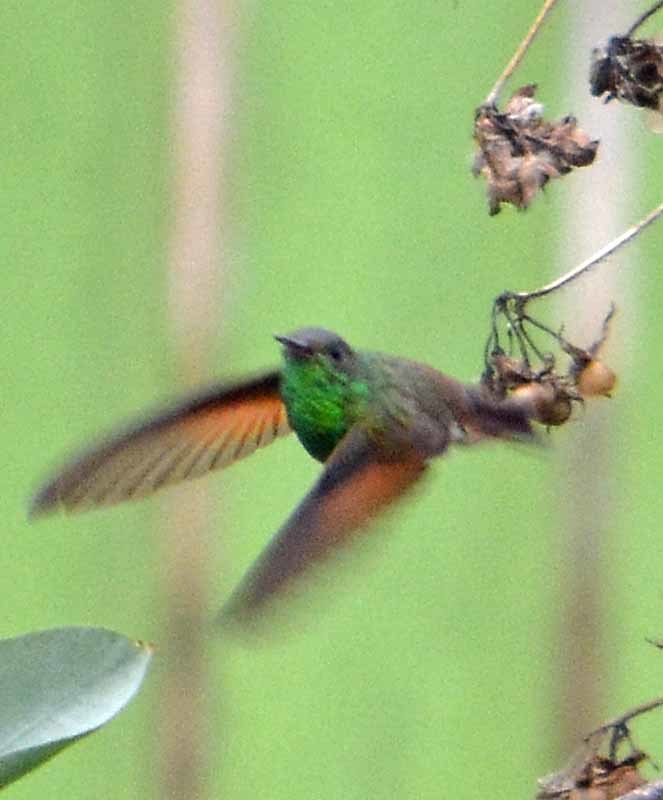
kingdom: Animalia
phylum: Chordata
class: Aves
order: Apodiformes
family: Trochilidae
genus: Saucerottia
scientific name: Saucerottia beryllina
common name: Berylline hummingbird
